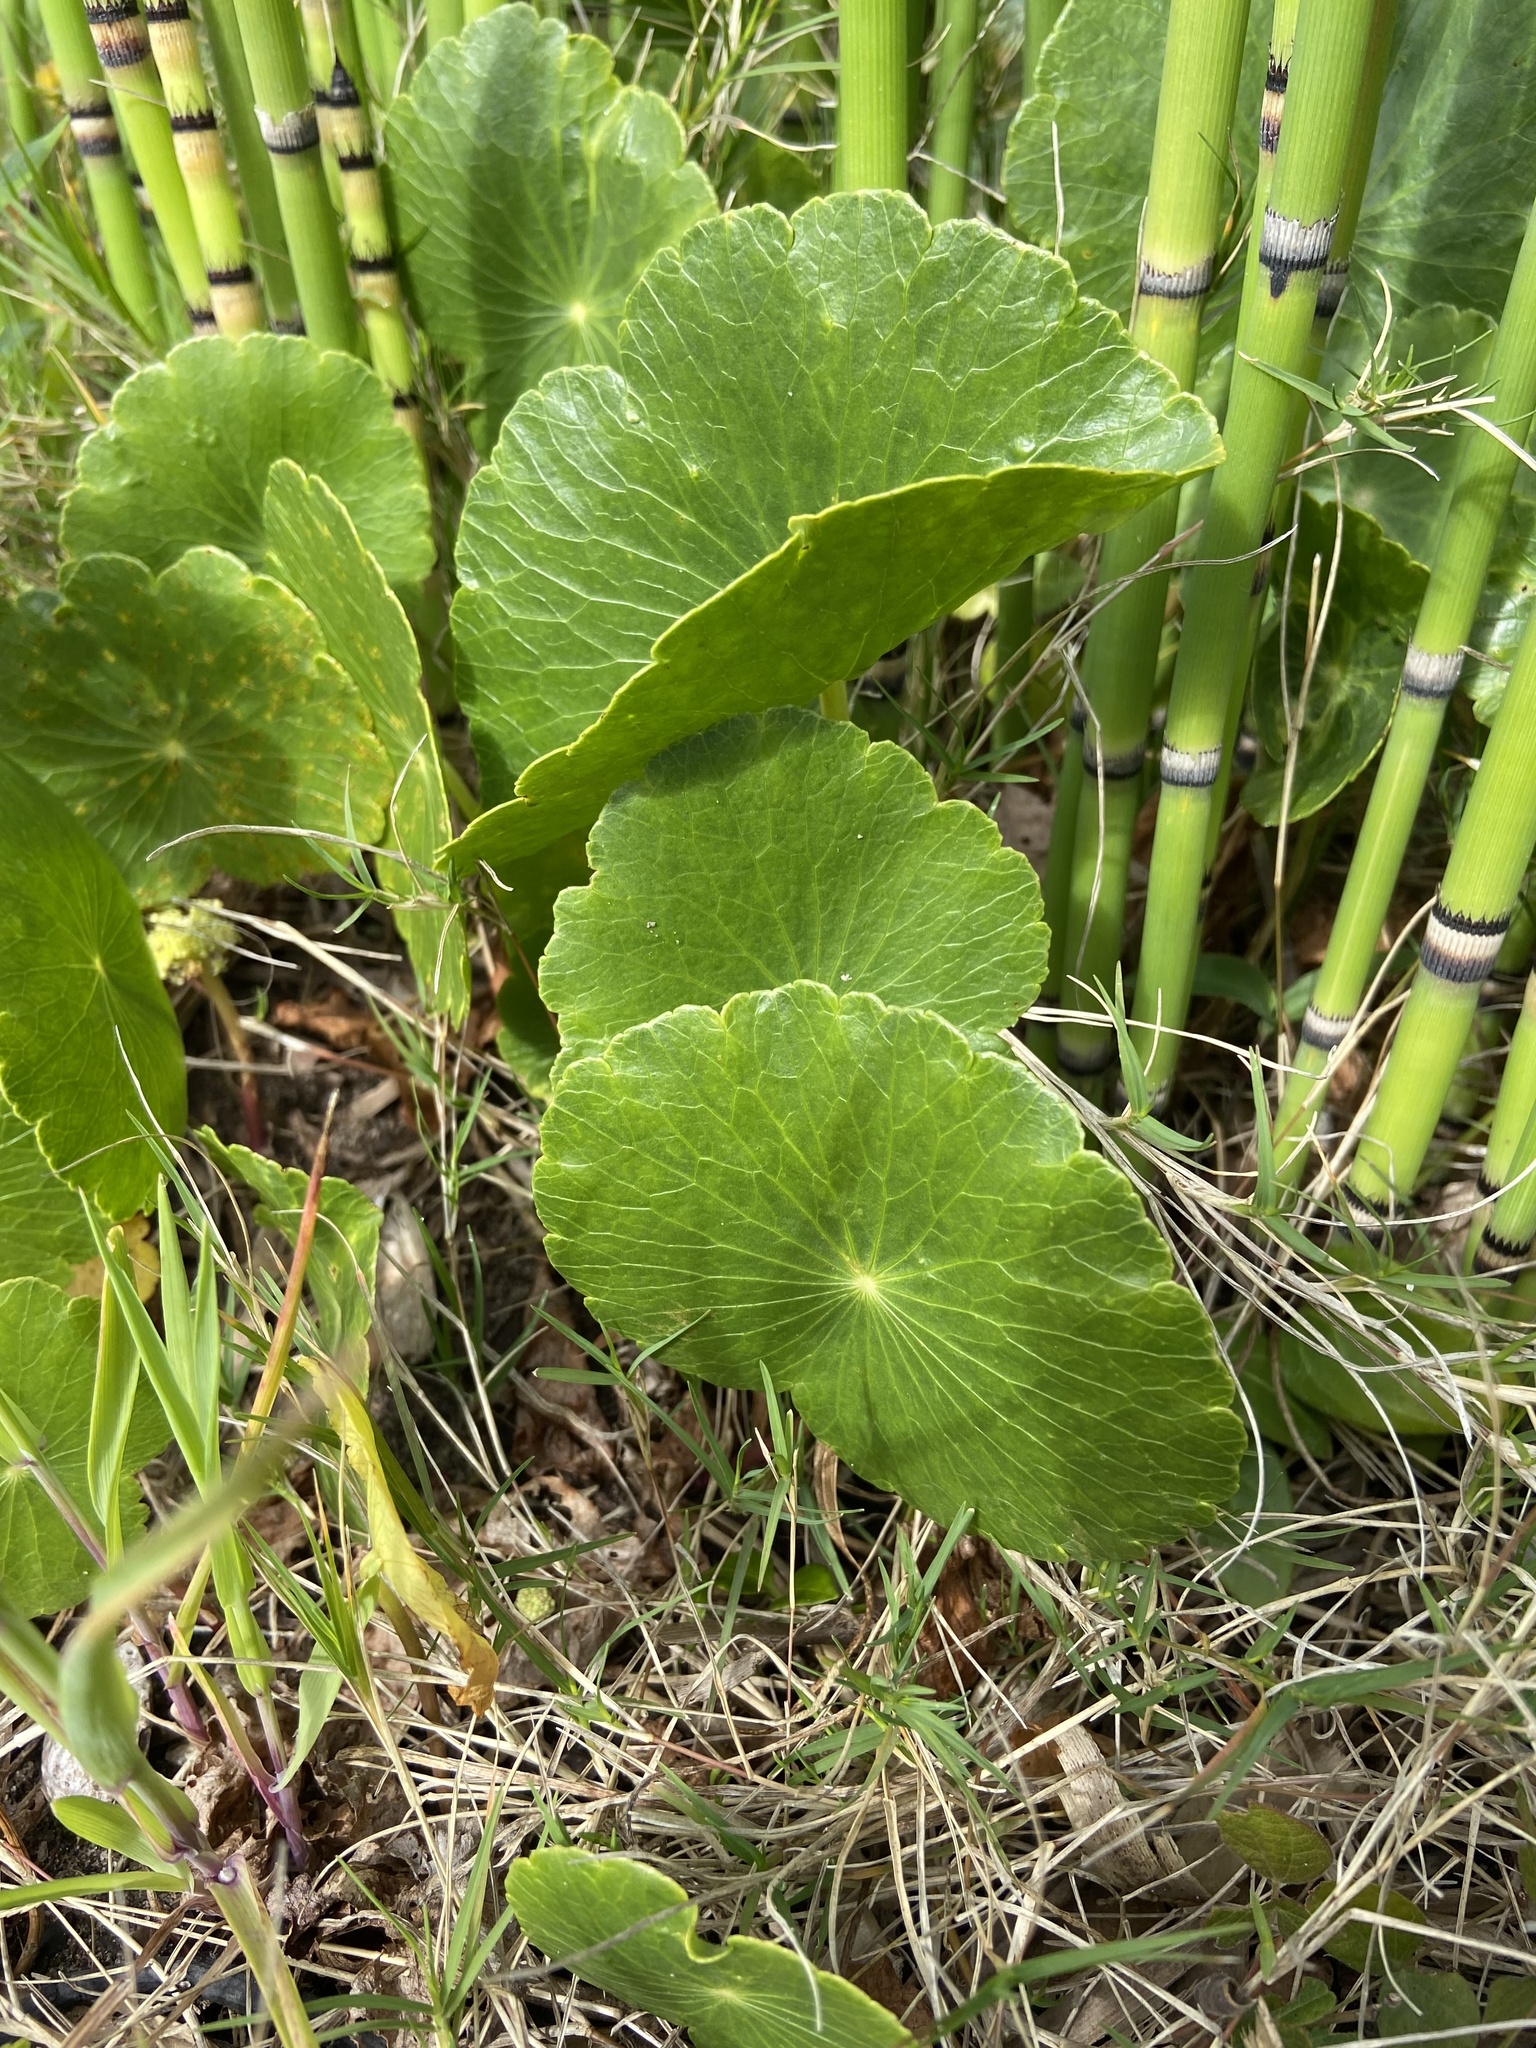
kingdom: Plantae
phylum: Tracheophyta
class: Magnoliopsida
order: Apiales
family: Araliaceae
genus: Hydrocotyle
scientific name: Hydrocotyle bonariensis
